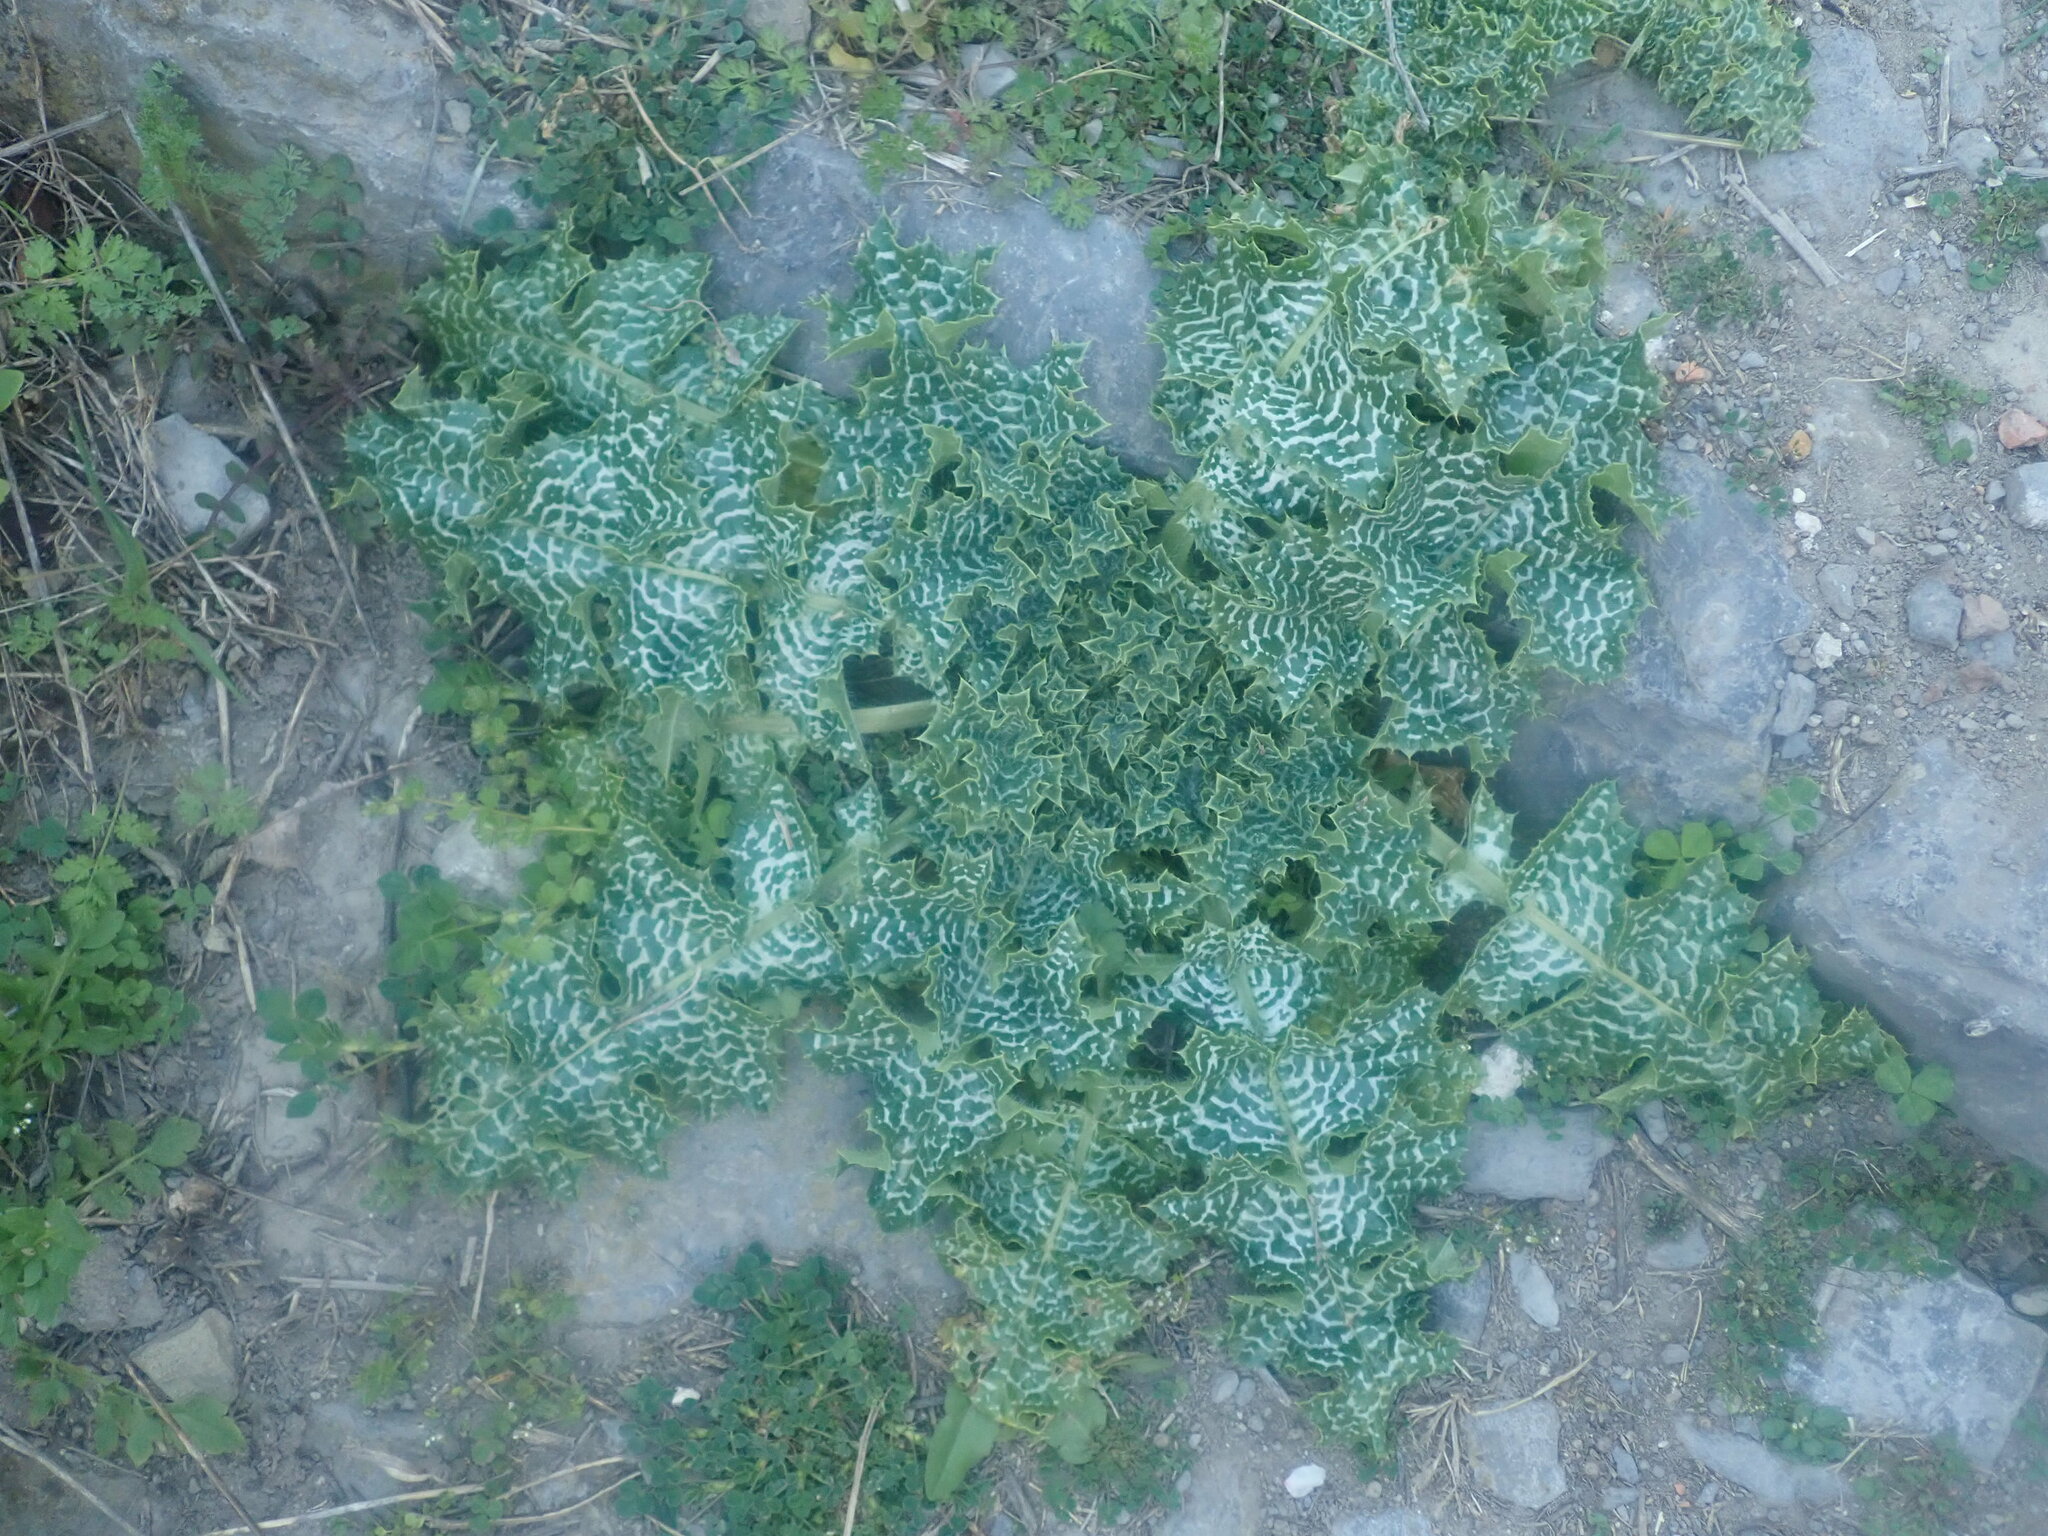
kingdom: Plantae
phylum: Tracheophyta
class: Magnoliopsida
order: Asterales
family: Asteraceae
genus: Silybum
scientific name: Silybum marianum
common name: Milk thistle
